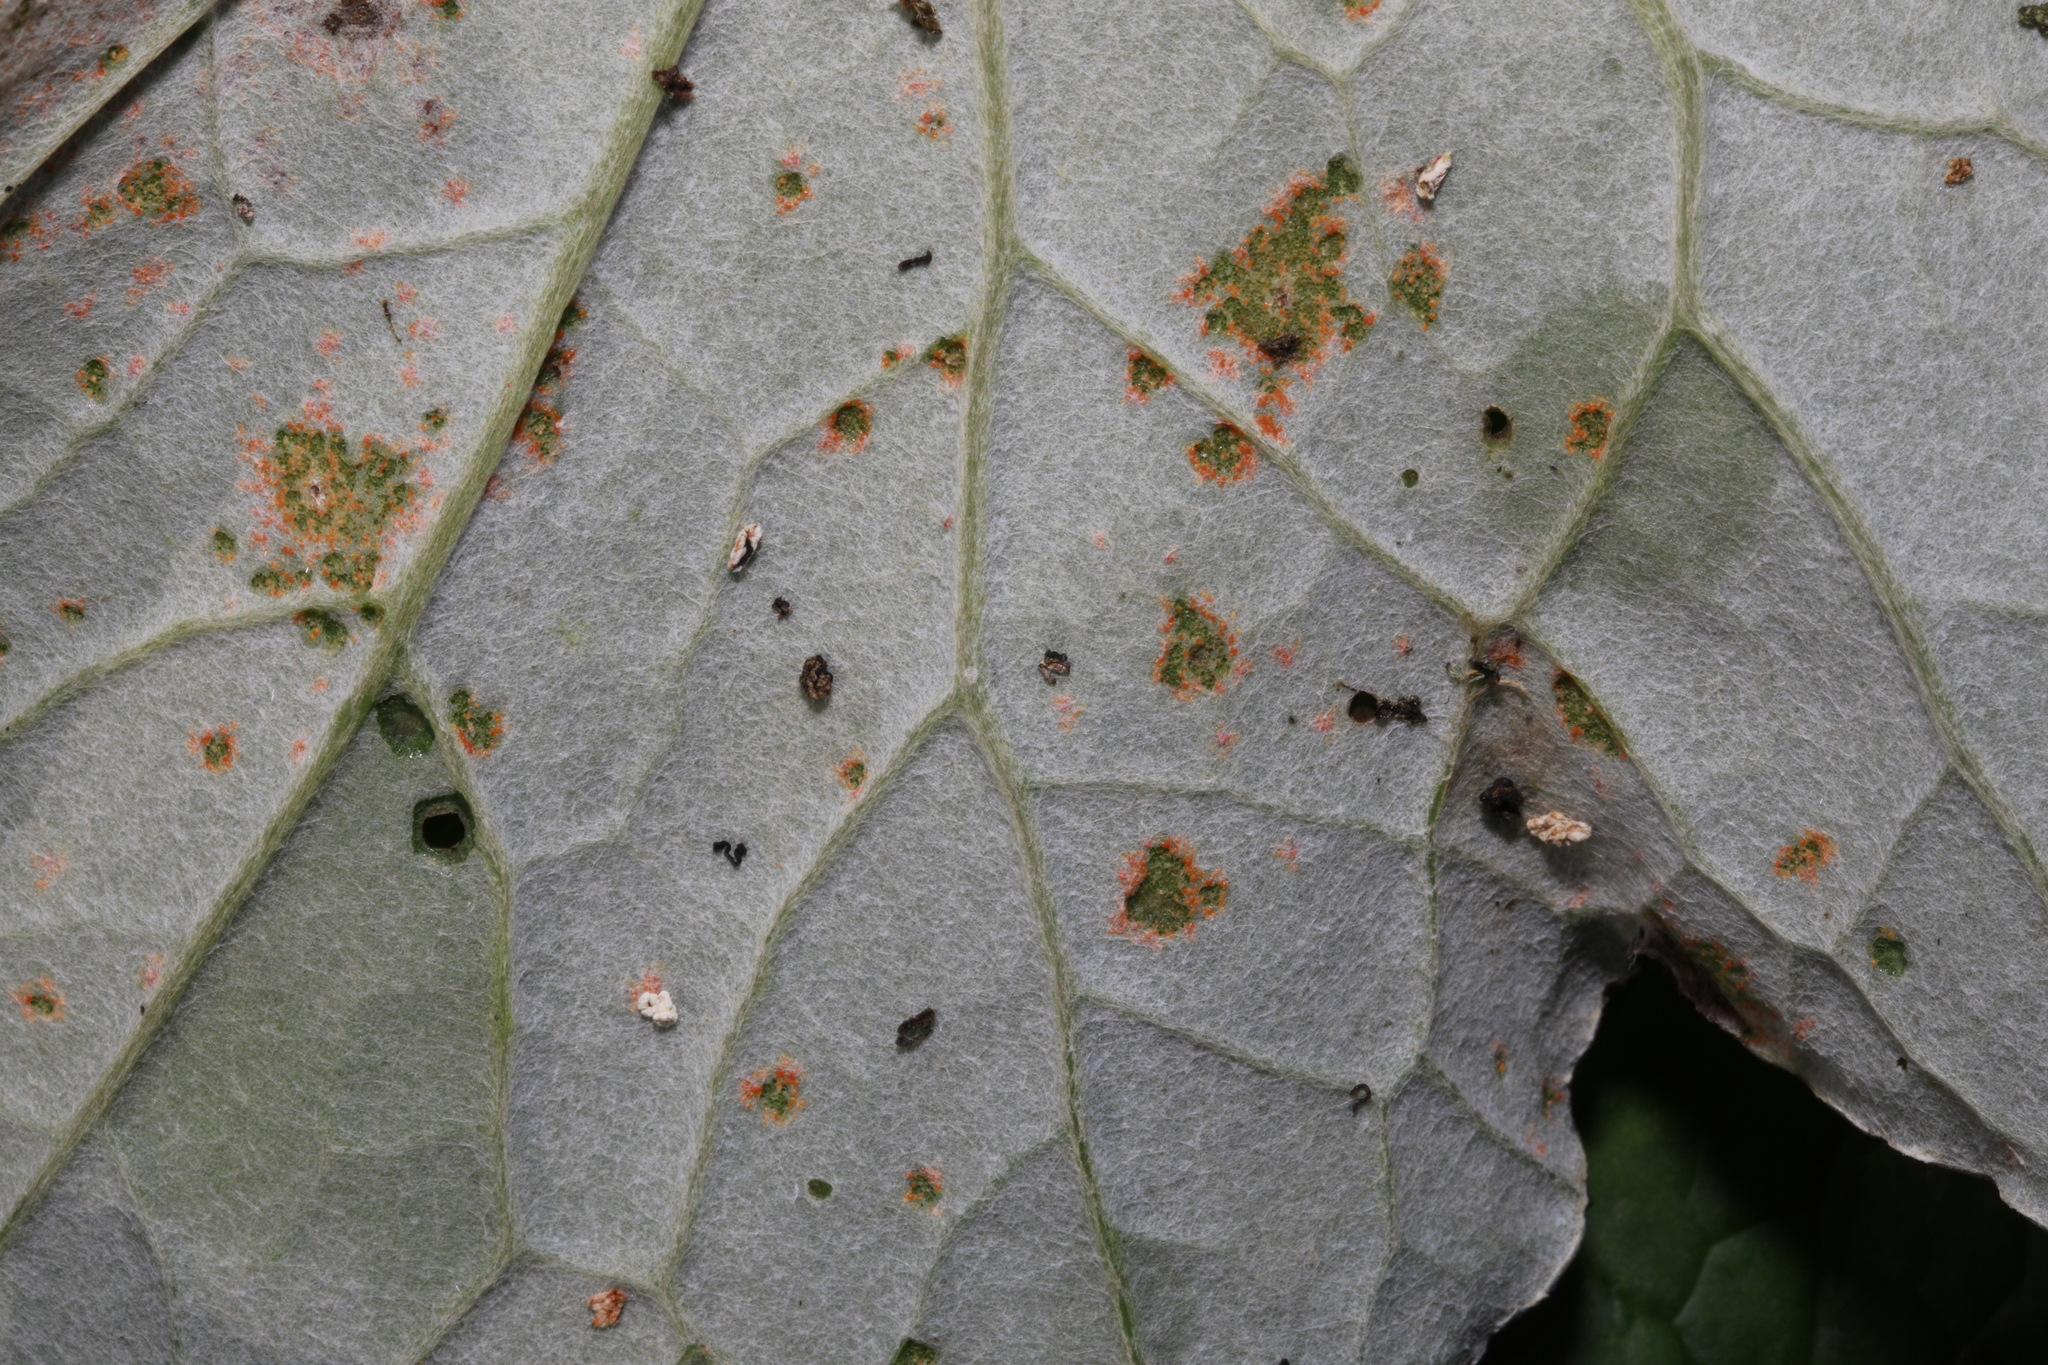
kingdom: Fungi
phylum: Basidiomycota
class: Pucciniomycetes
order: Pucciniales
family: Coleosporiaceae
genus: Coleosporium
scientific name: Coleosporium tussilaginis
